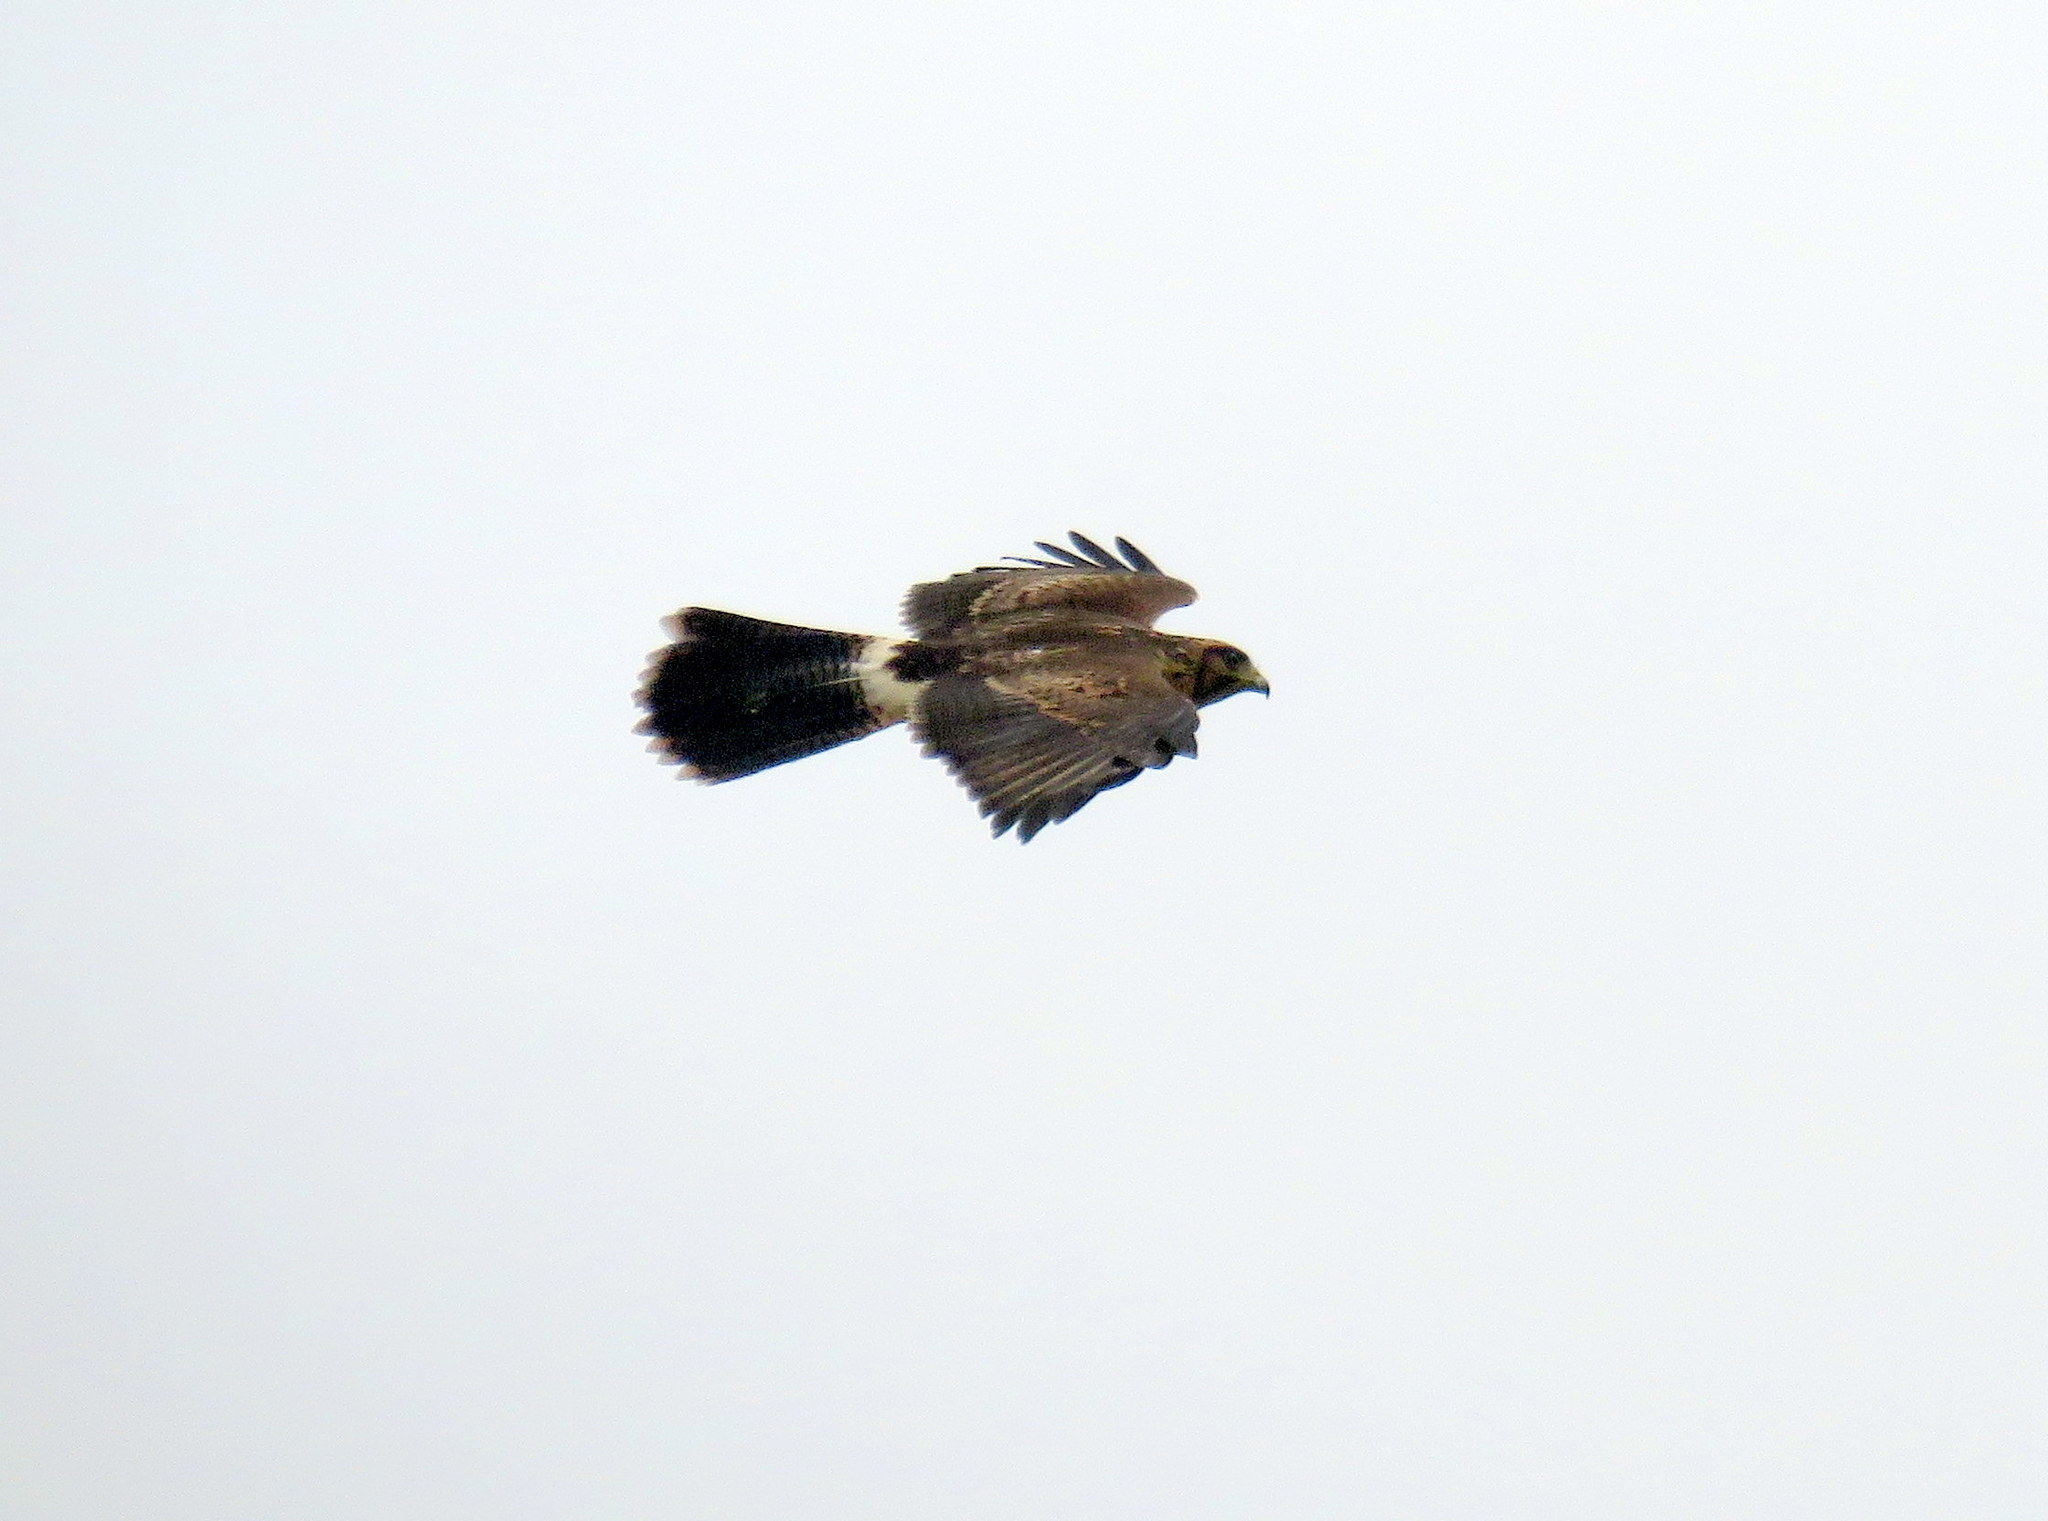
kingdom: Animalia
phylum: Chordata
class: Aves
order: Accipitriformes
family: Accipitridae
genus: Parabuteo
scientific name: Parabuteo unicinctus
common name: Harris's hawk
